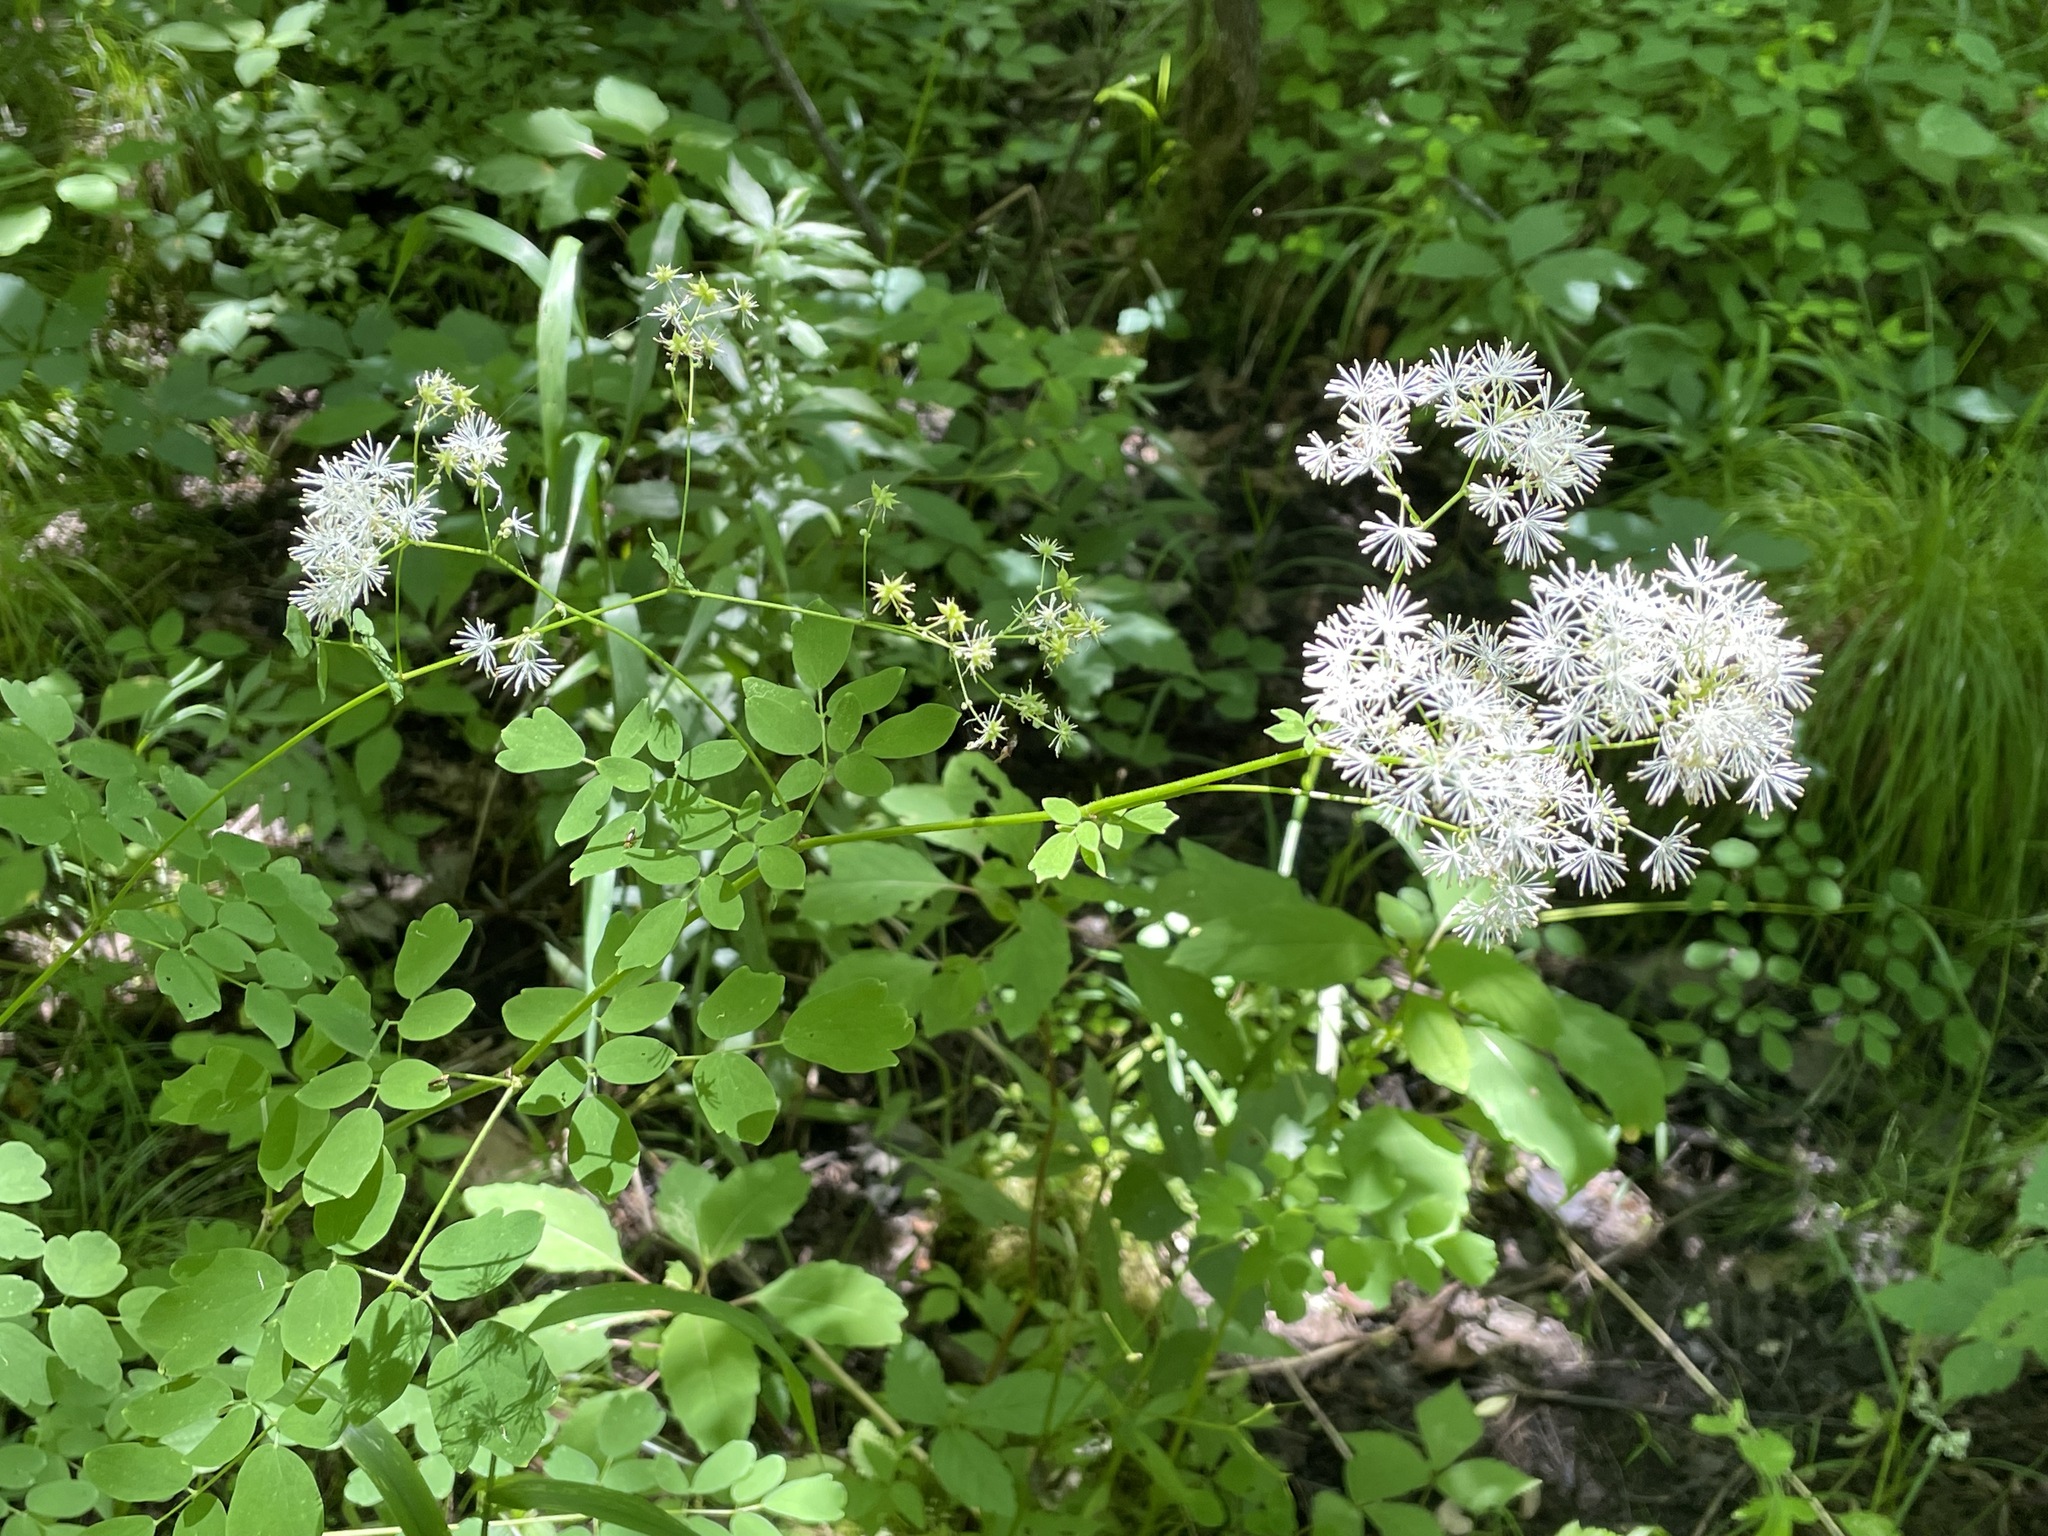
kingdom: Plantae
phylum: Tracheophyta
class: Magnoliopsida
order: Ranunculales
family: Ranunculaceae
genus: Thalictrum
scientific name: Thalictrum pubescens
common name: King-of-the-meadow
